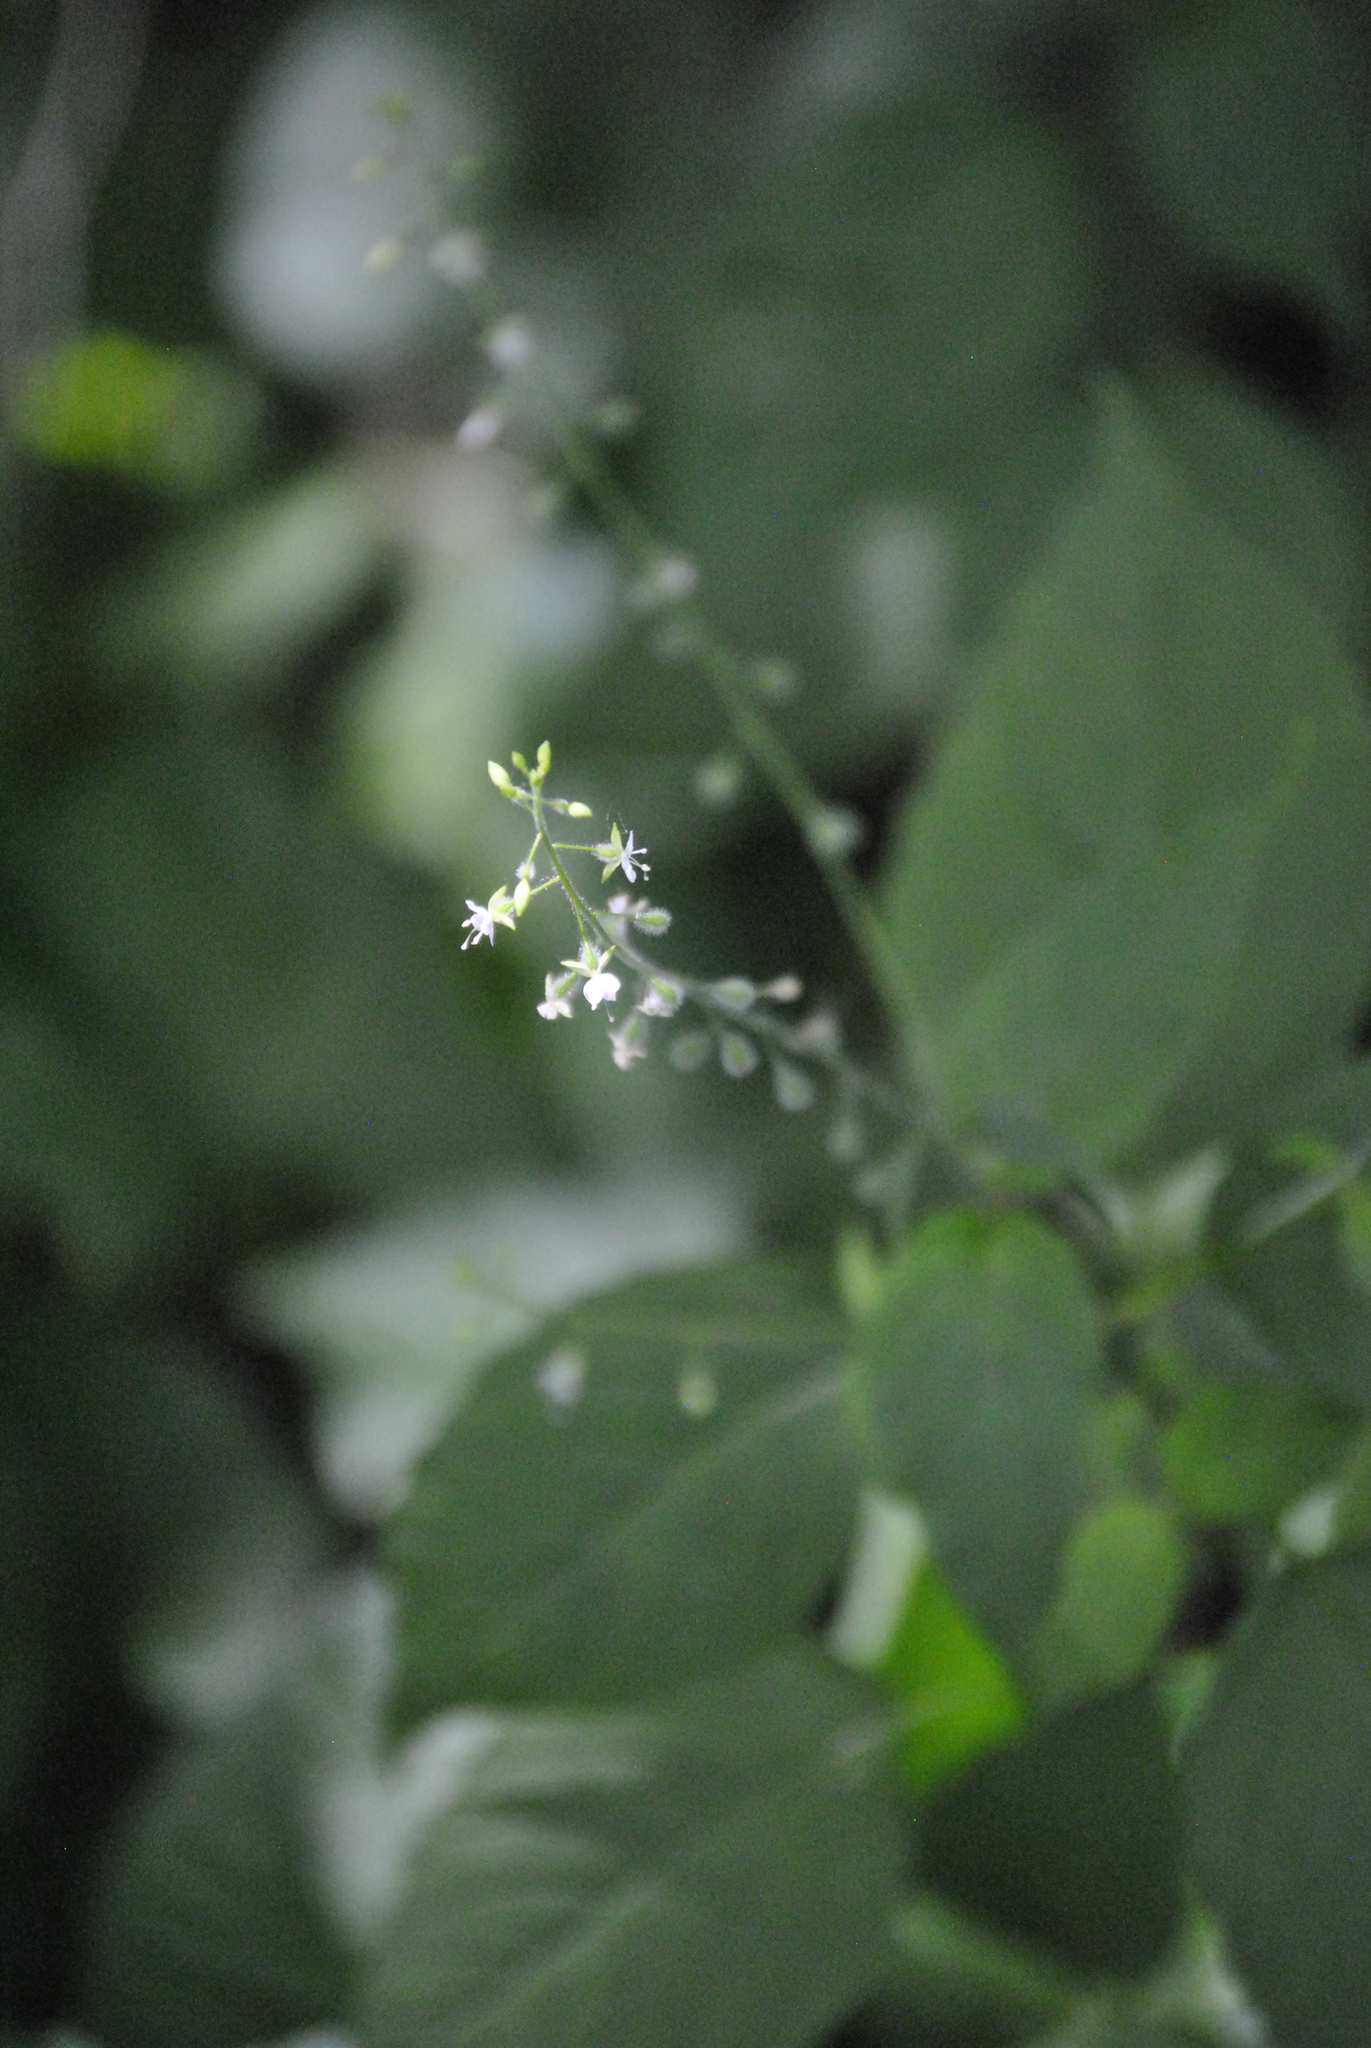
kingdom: Plantae
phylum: Tracheophyta
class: Magnoliopsida
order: Myrtales
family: Onagraceae
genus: Circaea
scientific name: Circaea canadensis
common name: Broad-leaved enchanter's nightshade
